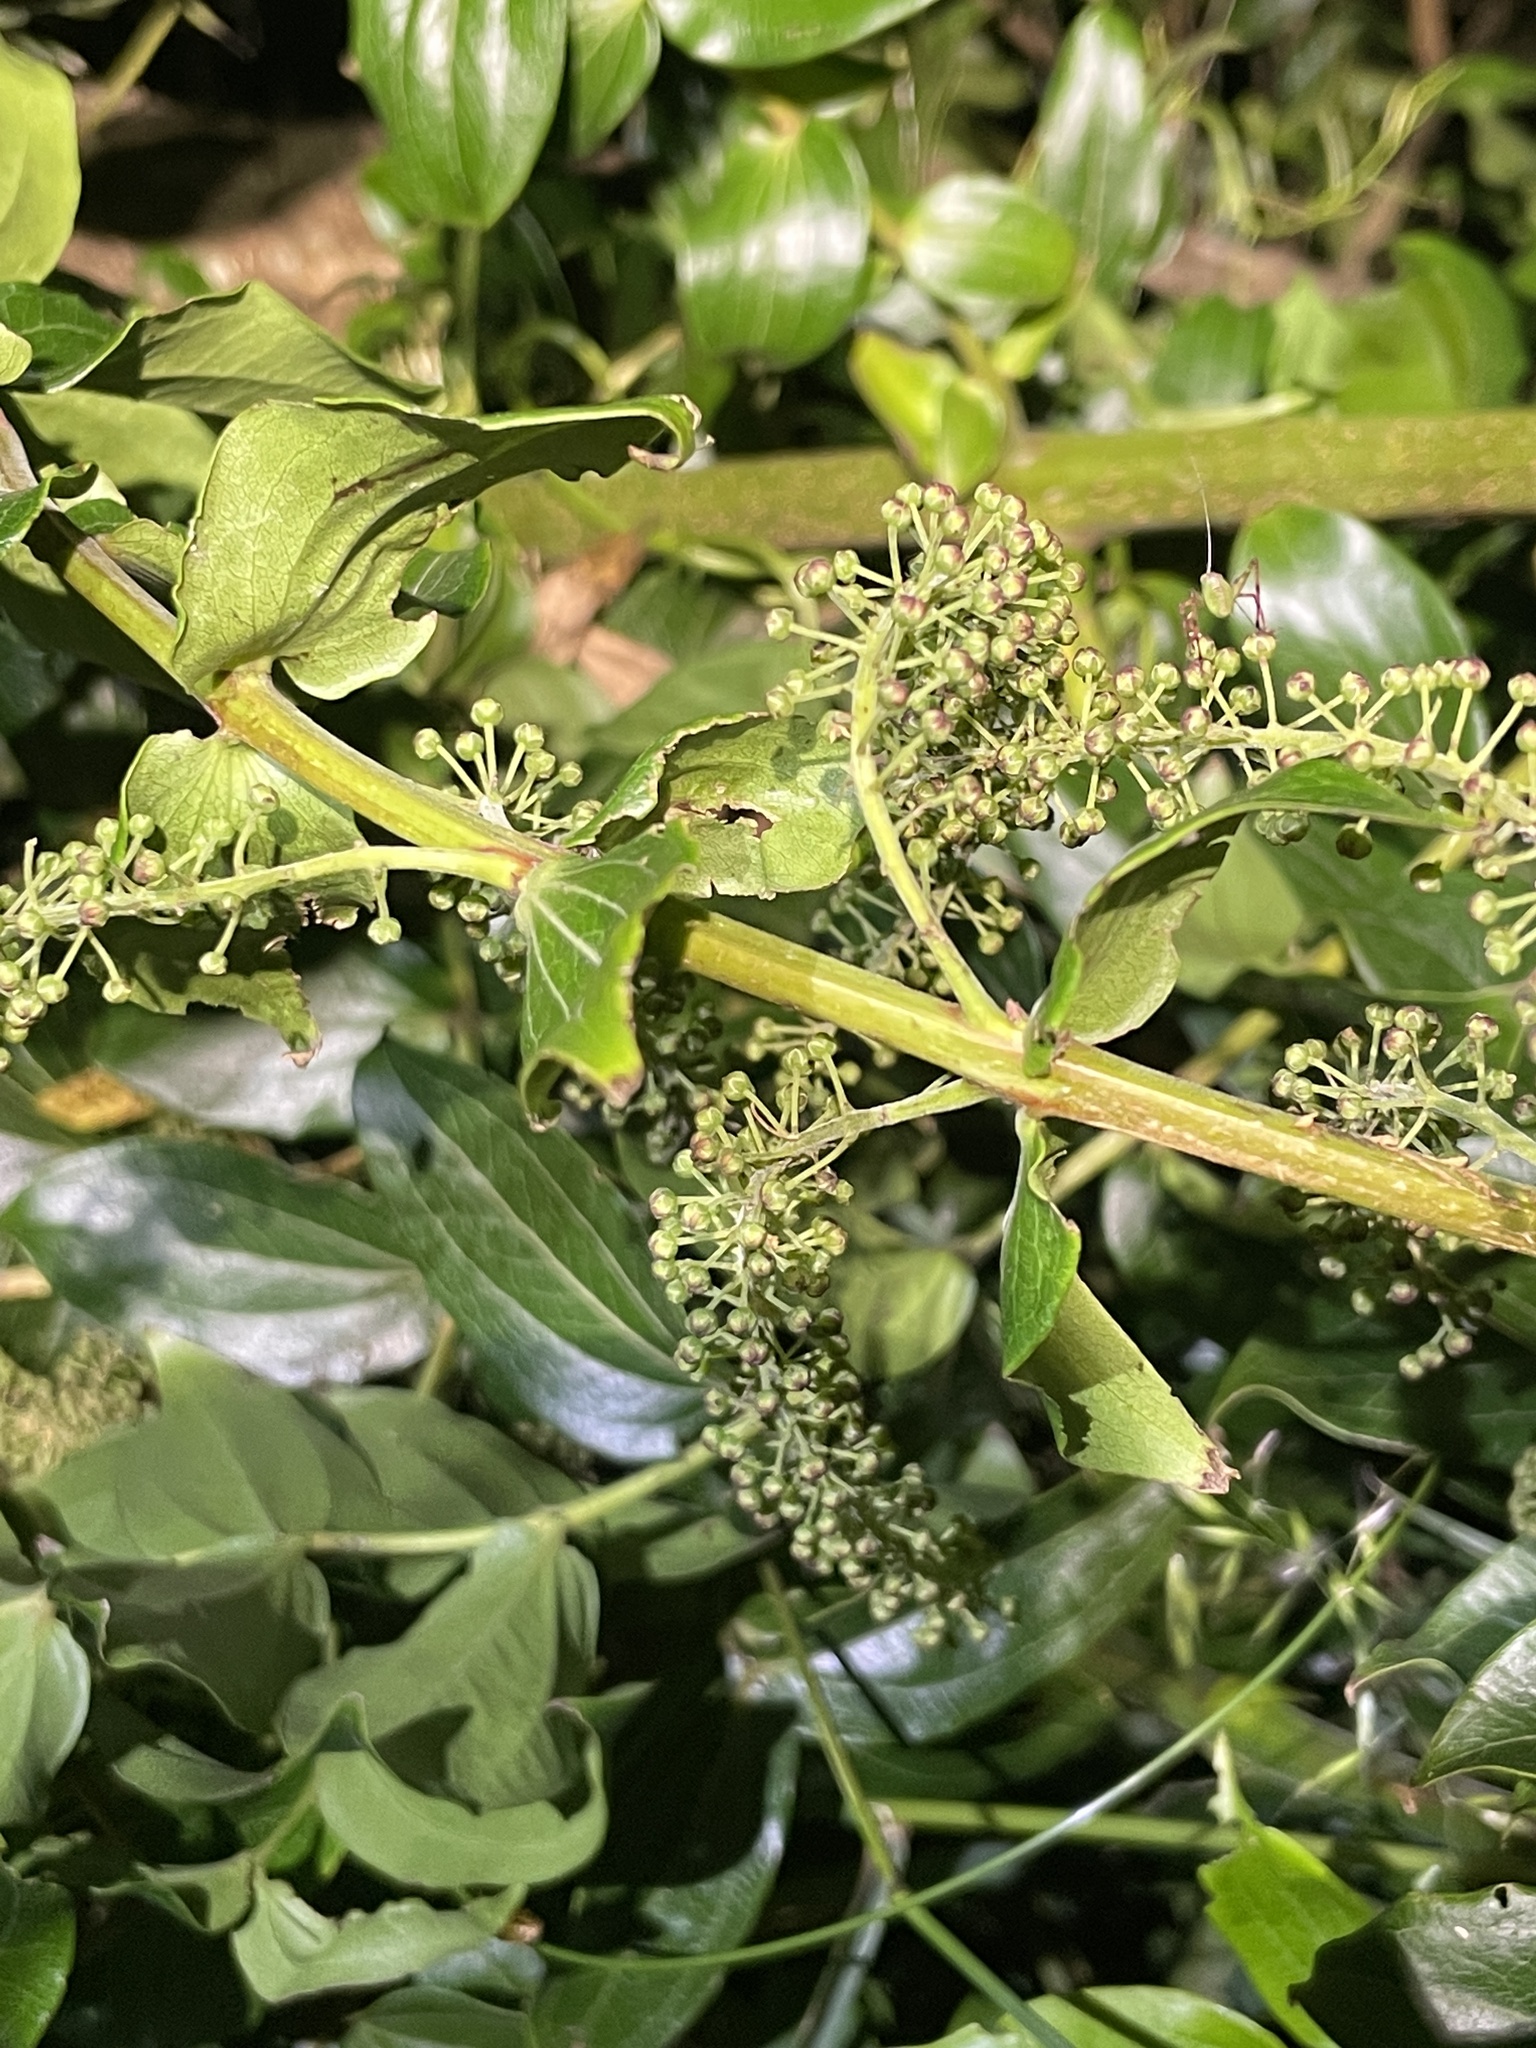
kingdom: Plantae
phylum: Tracheophyta
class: Magnoliopsida
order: Cucurbitales
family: Coriariaceae
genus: Coriaria
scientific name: Coriaria arborea
